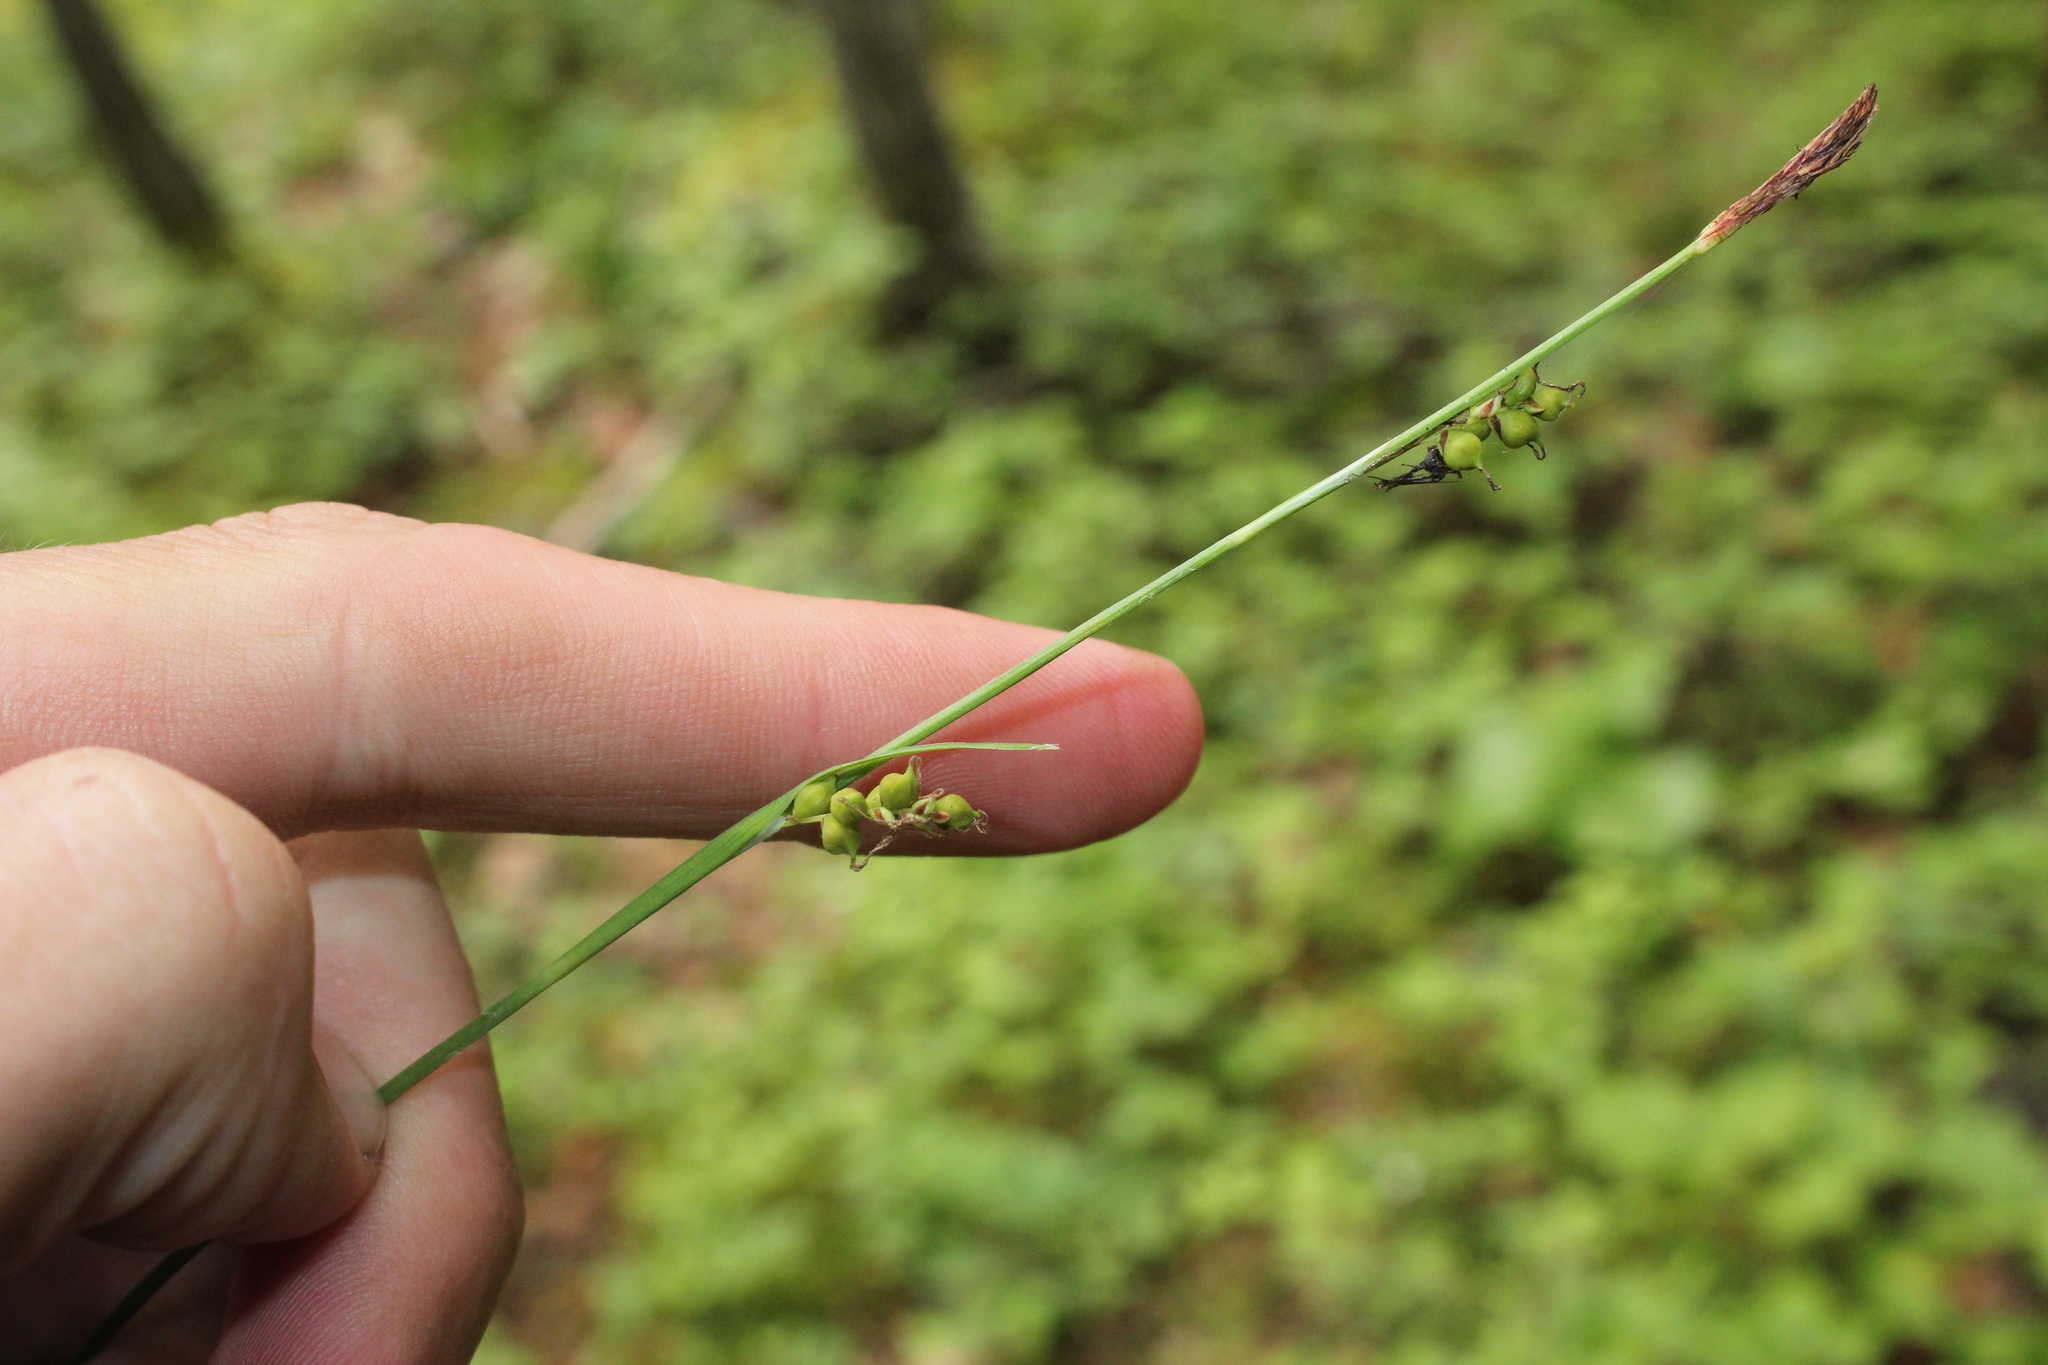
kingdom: Plantae
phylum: Tracheophyta
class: Liliopsida
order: Poales
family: Cyperaceae
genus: Carex
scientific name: Carex vaginata
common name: Sheathed sedge
